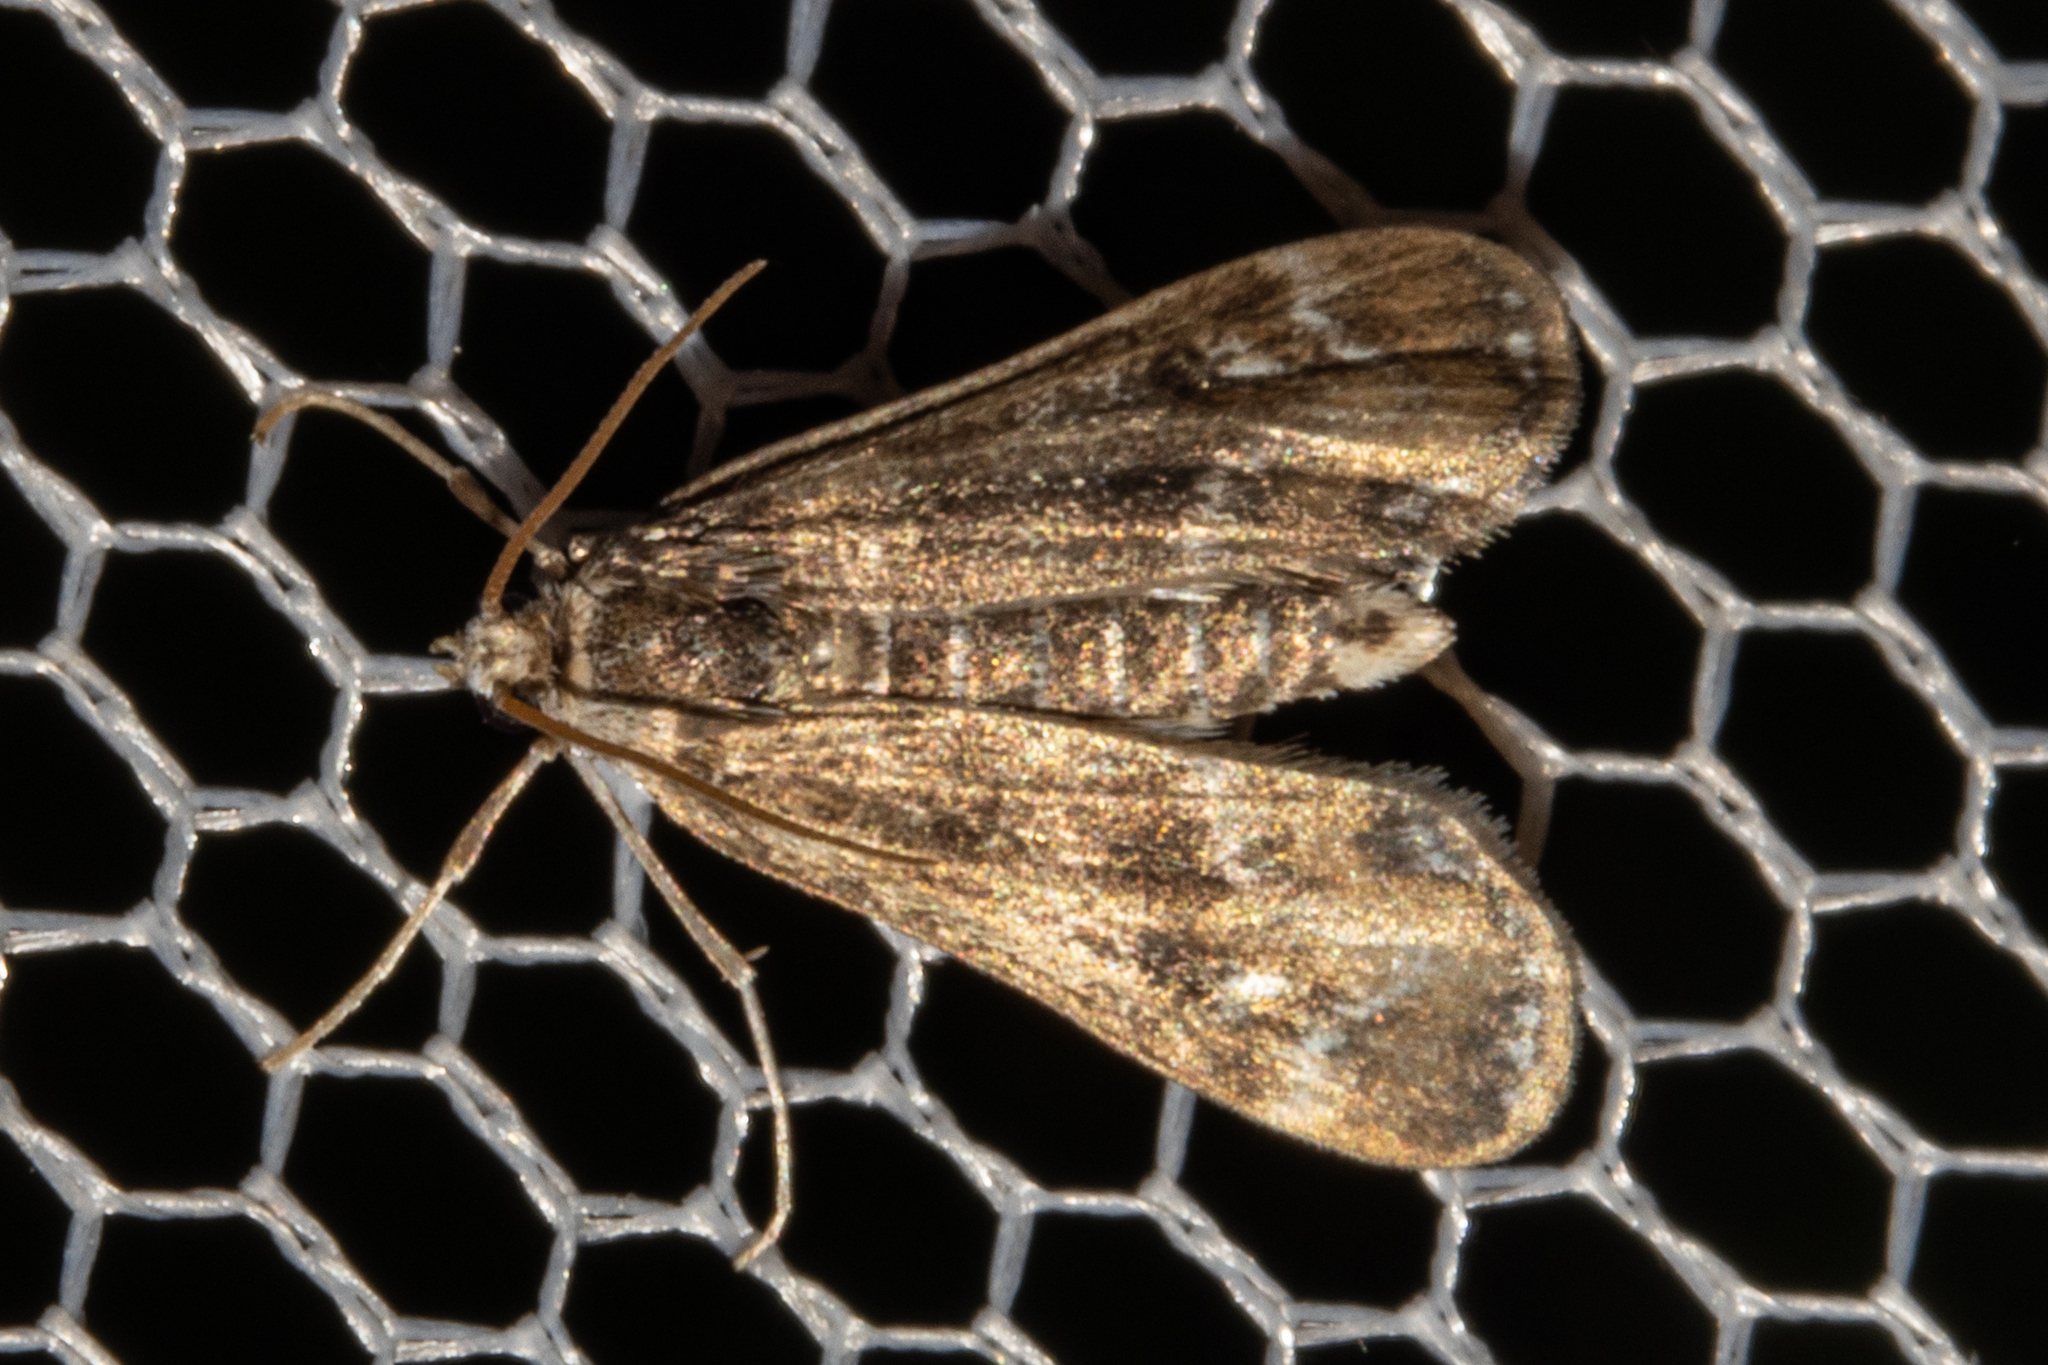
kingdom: Animalia
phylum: Arthropoda
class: Insecta
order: Lepidoptera
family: Crambidae
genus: Hygraula
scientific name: Hygraula nitens
